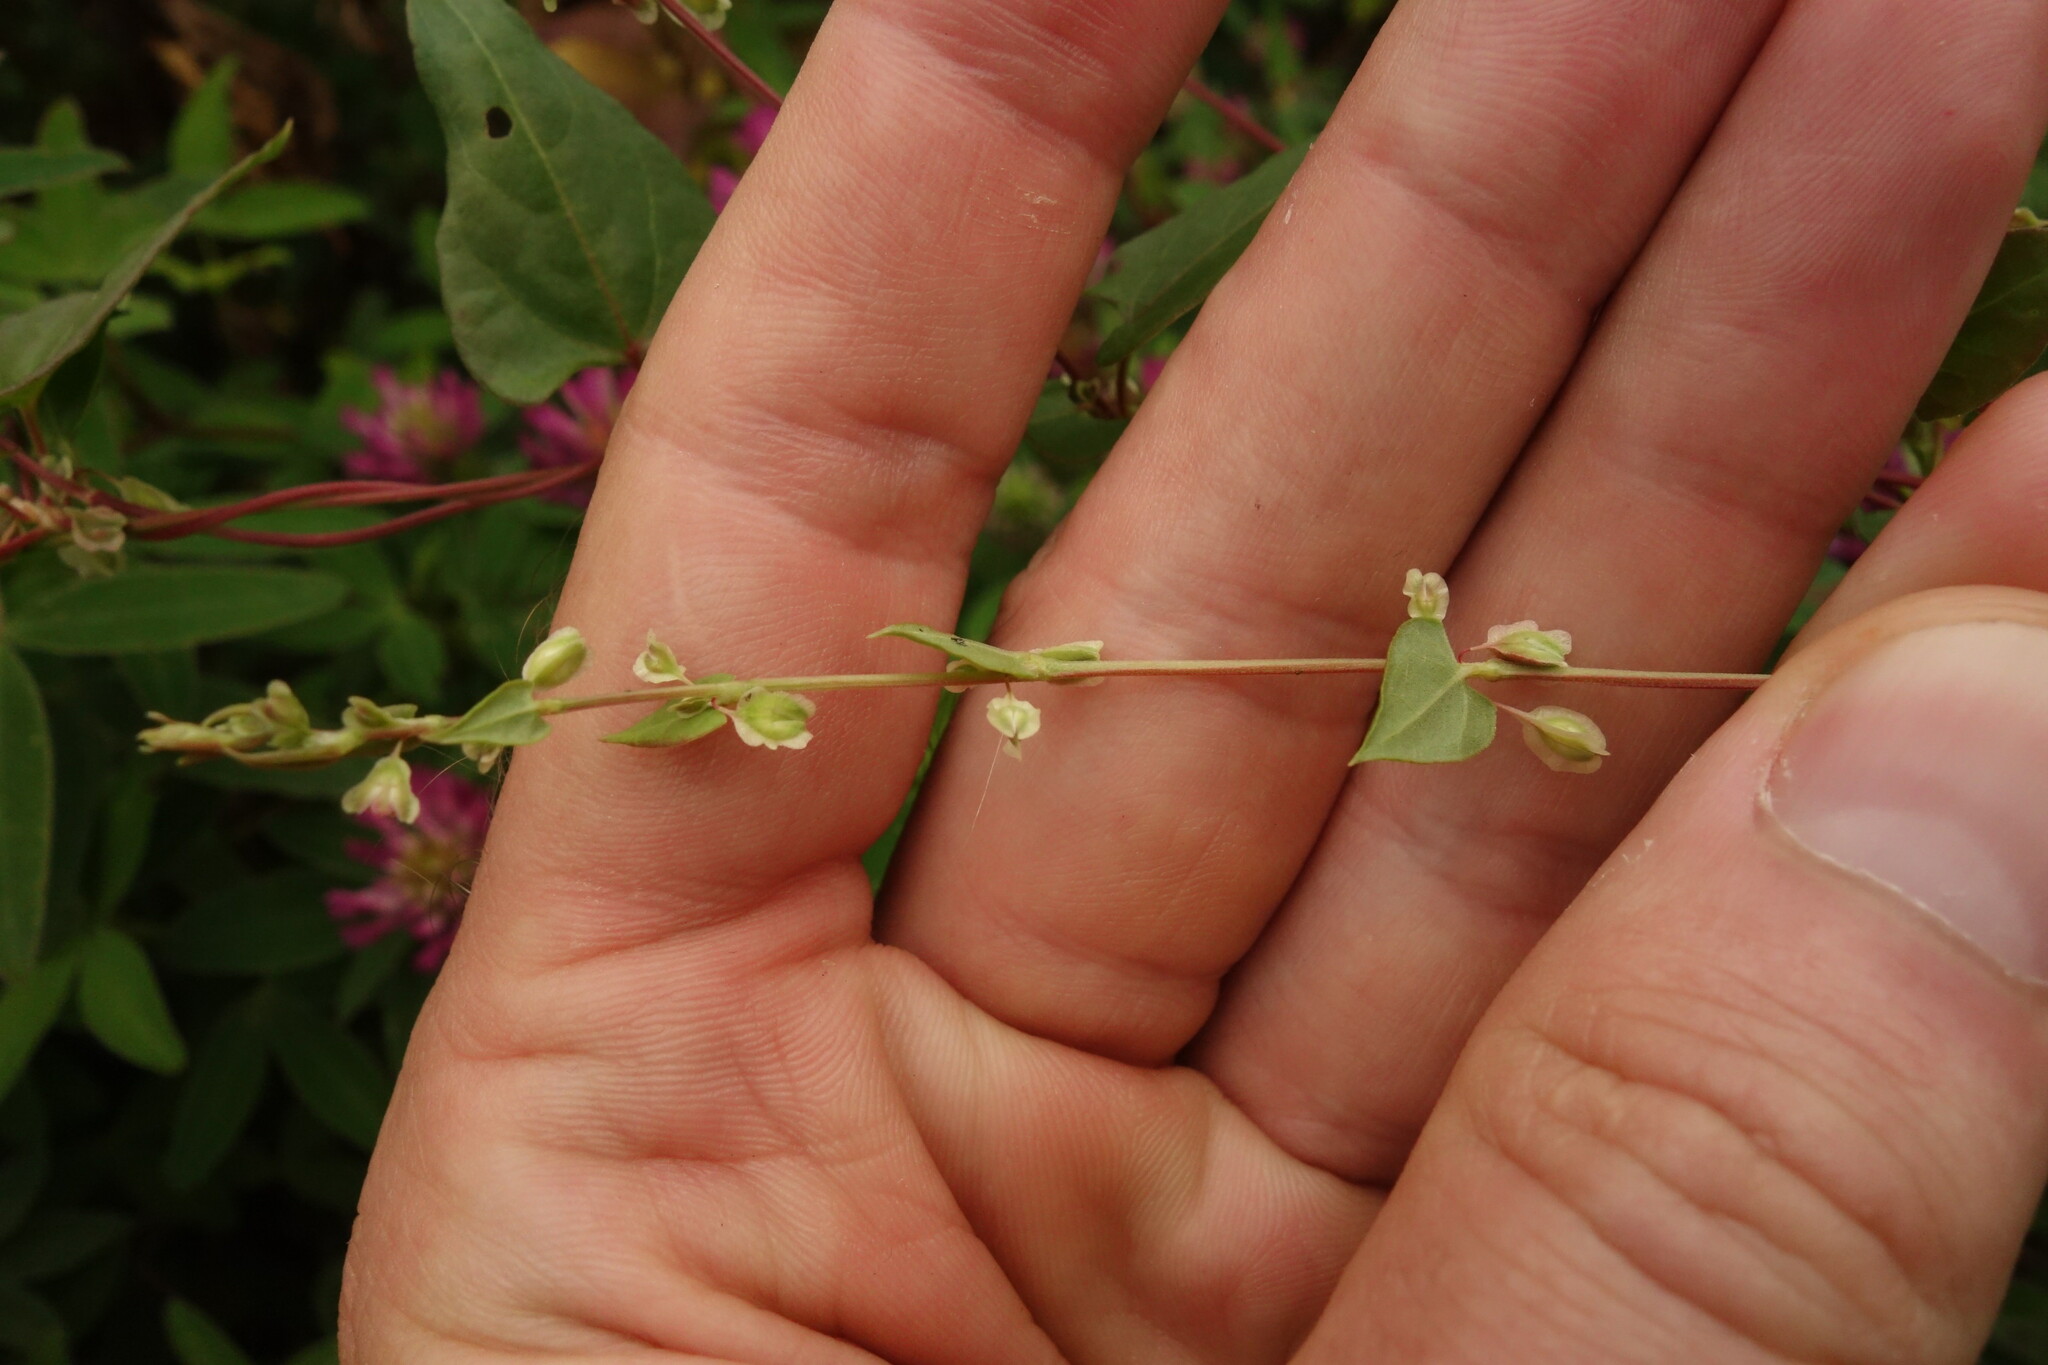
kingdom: Plantae
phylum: Tracheophyta
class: Magnoliopsida
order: Caryophyllales
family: Polygonaceae
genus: Fallopia
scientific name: Fallopia dumetorum
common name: Copse-bindweed
